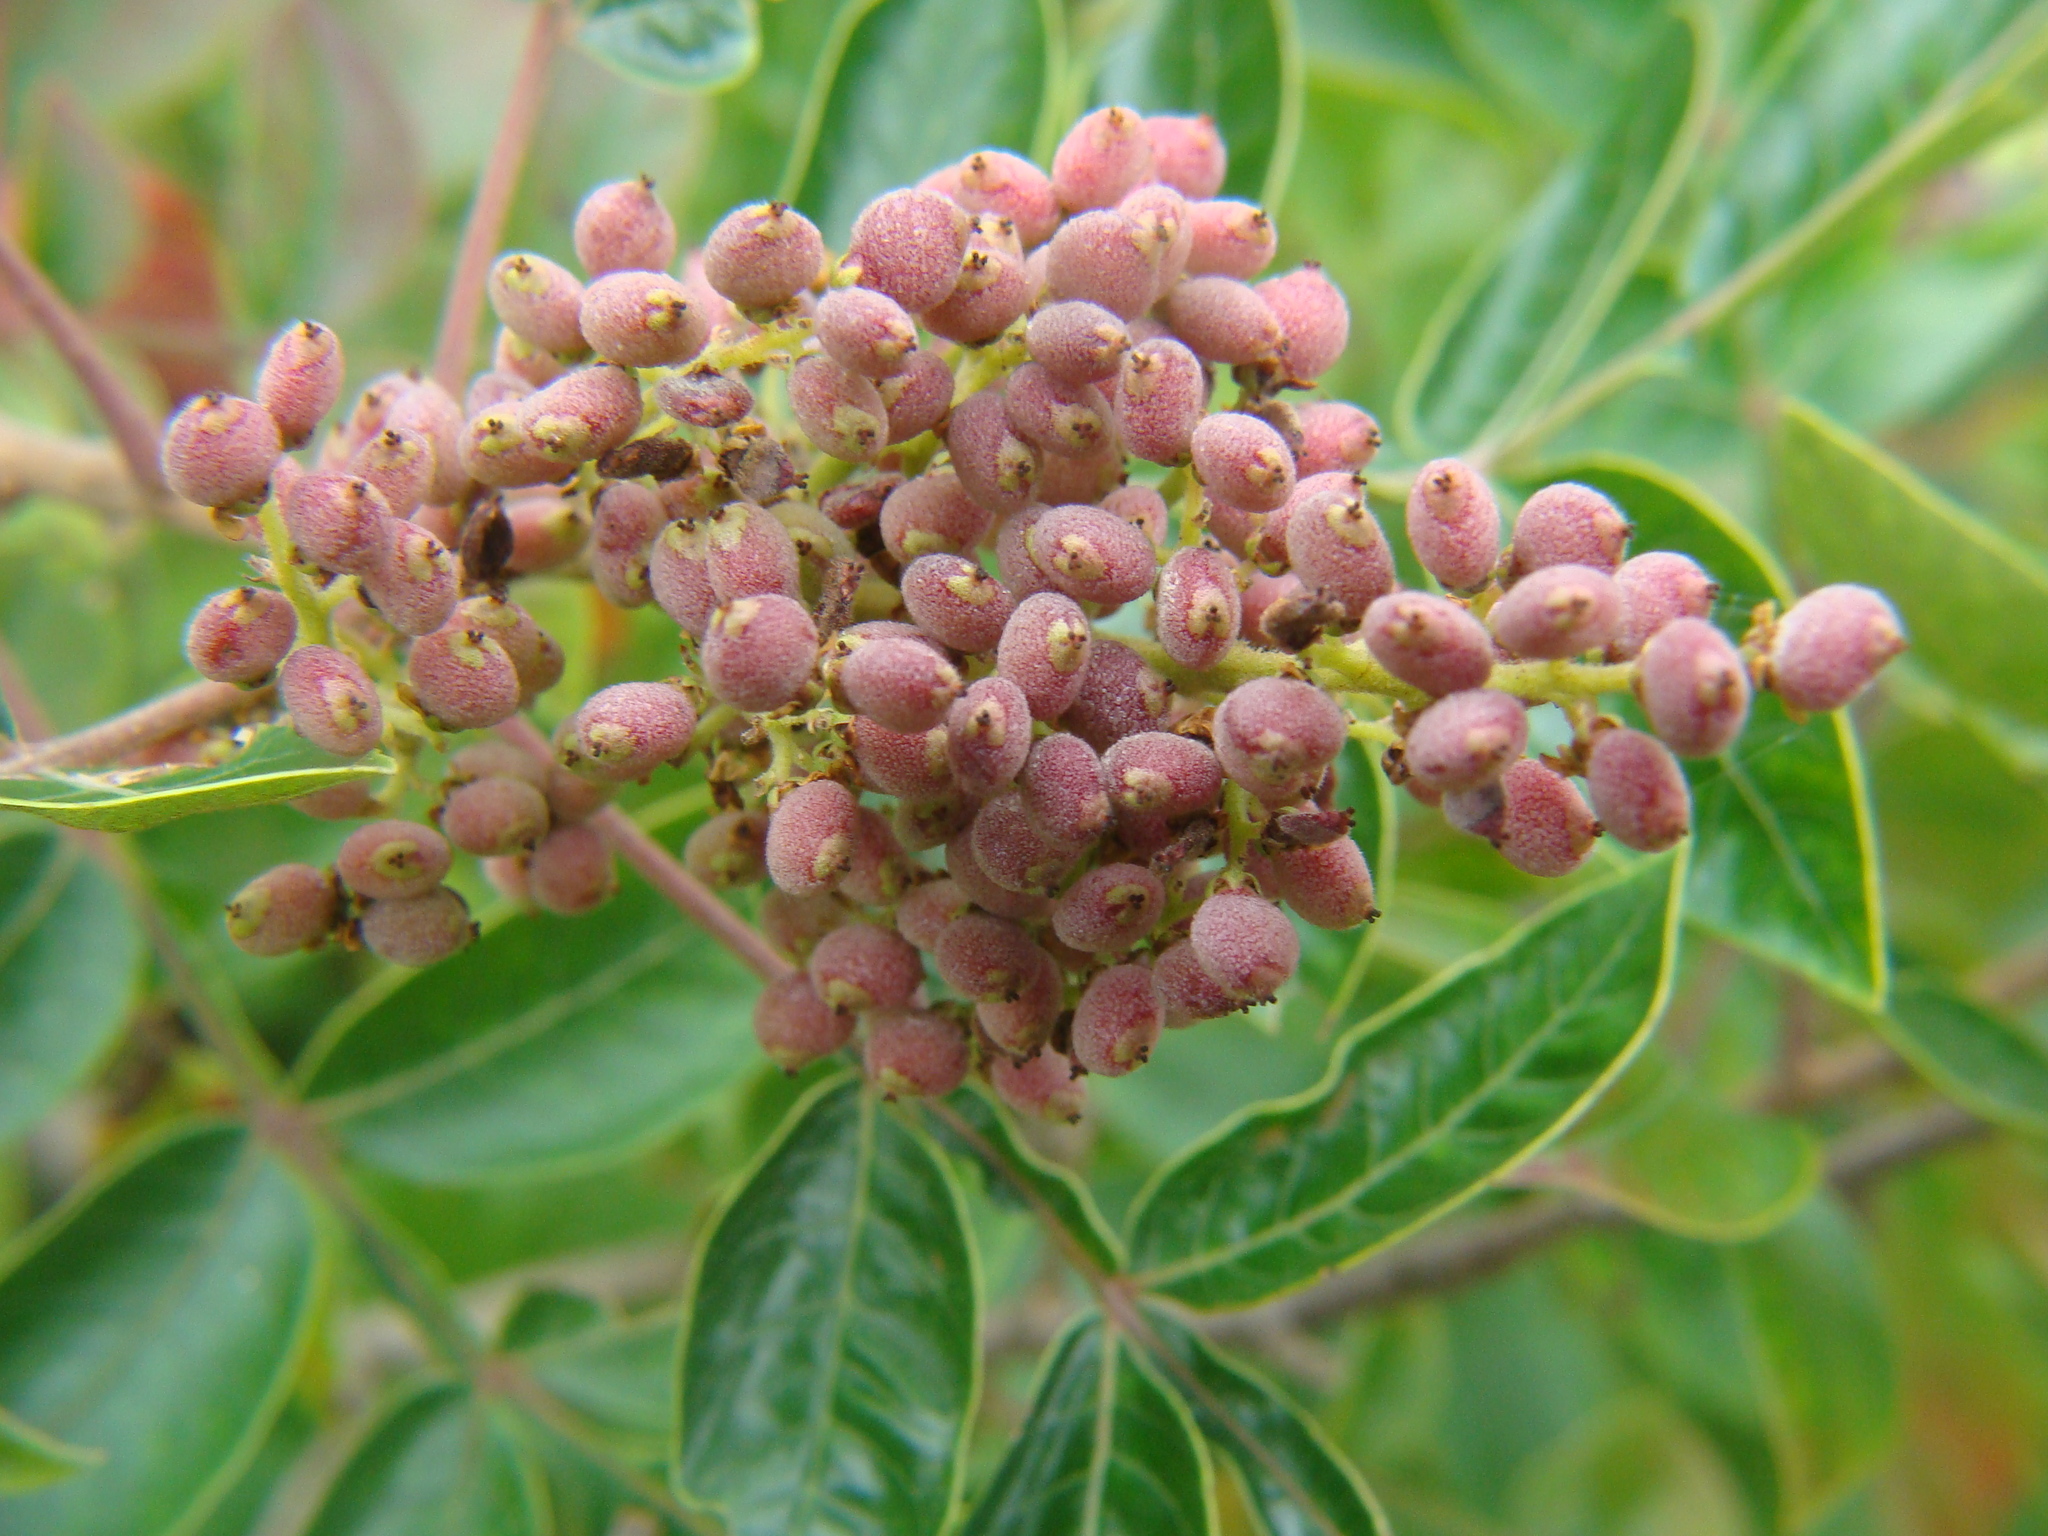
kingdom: Plantae
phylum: Tracheophyta
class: Magnoliopsida
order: Sapindales
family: Anacardiaceae
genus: Rhus
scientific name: Rhus copallina
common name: Shining sumac
